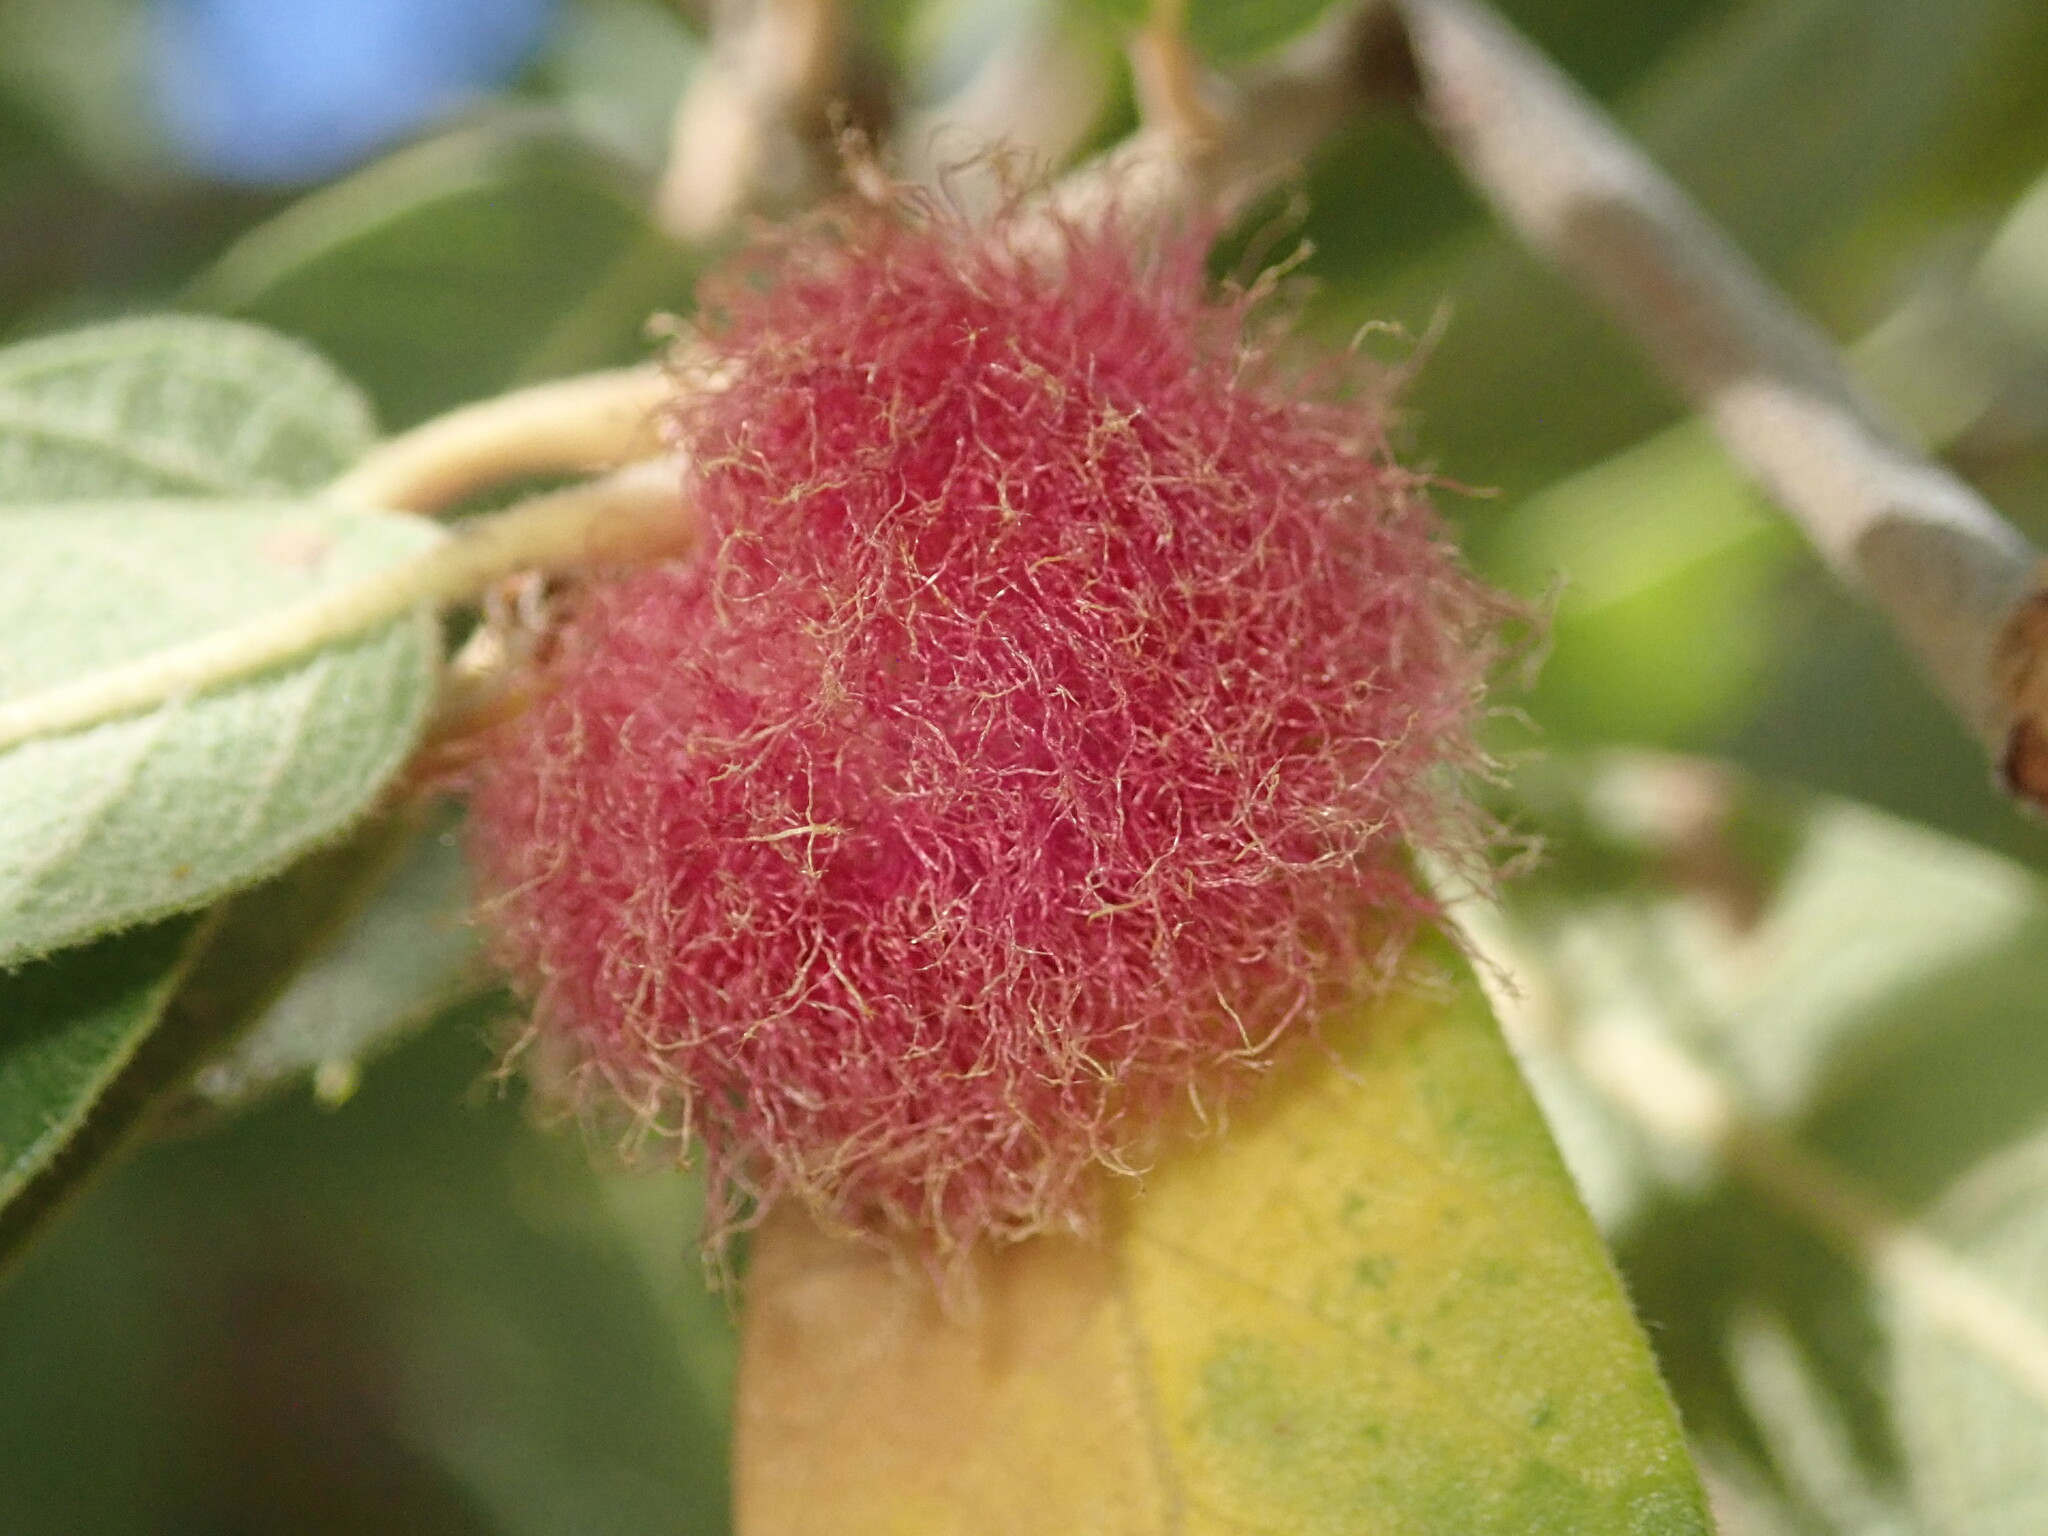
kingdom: Animalia
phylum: Arthropoda
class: Insecta
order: Hymenoptera
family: Cynipidae
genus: Cynips
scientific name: Cynips
